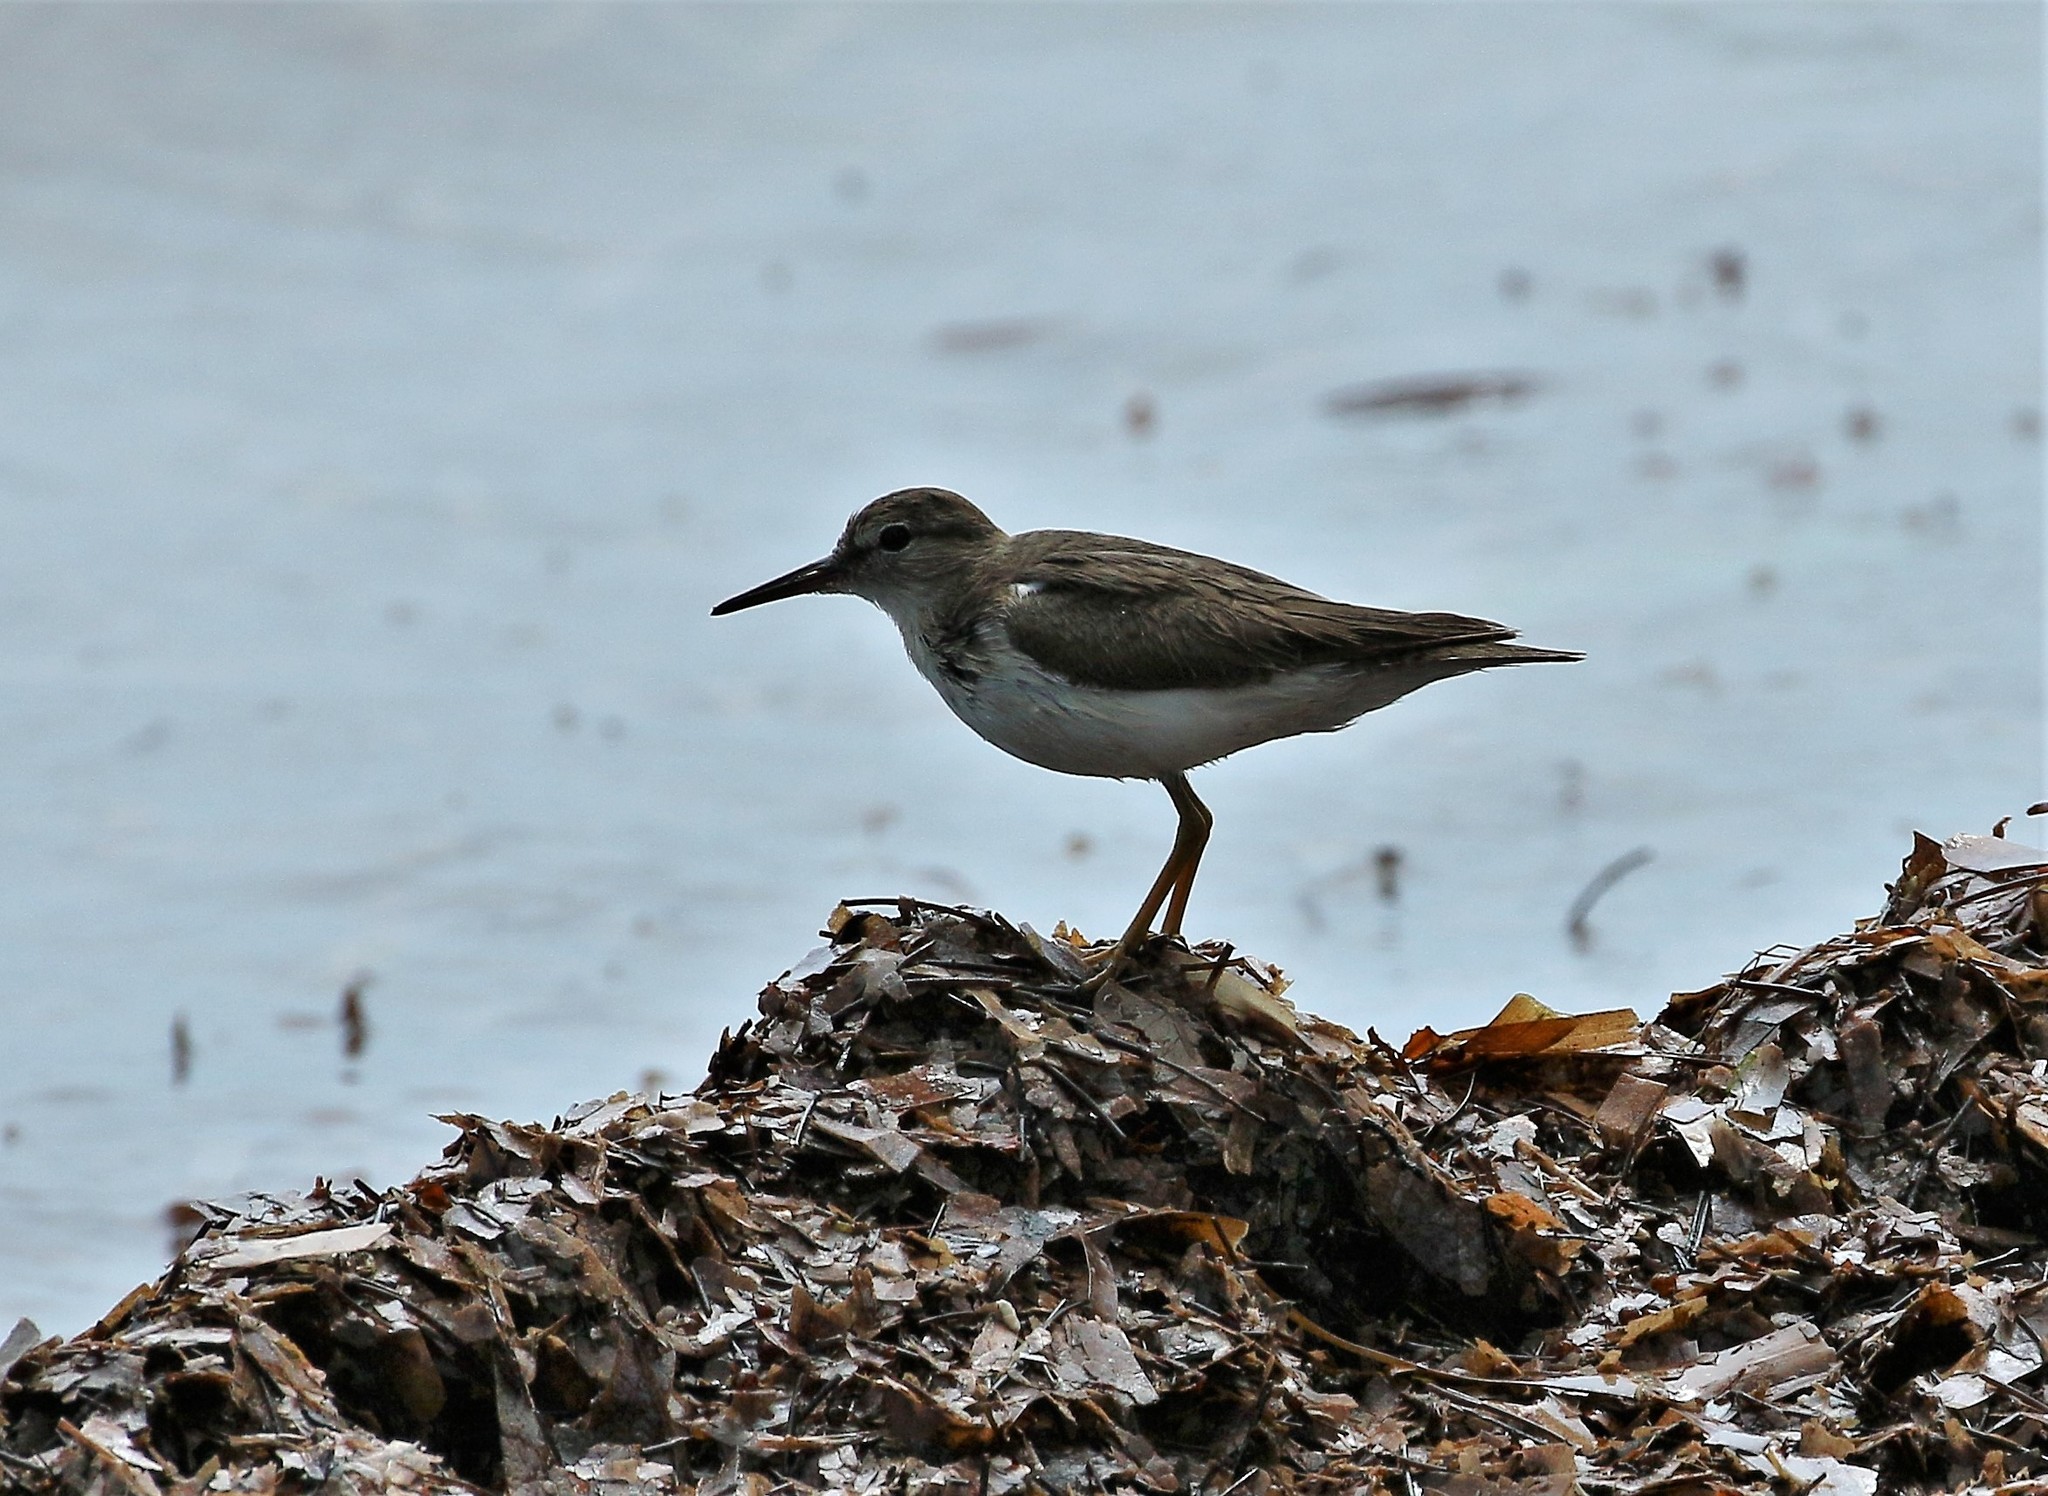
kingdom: Animalia
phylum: Chordata
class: Aves
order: Charadriiformes
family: Scolopacidae
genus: Actitis
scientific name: Actitis macularius
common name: Spotted sandpiper
